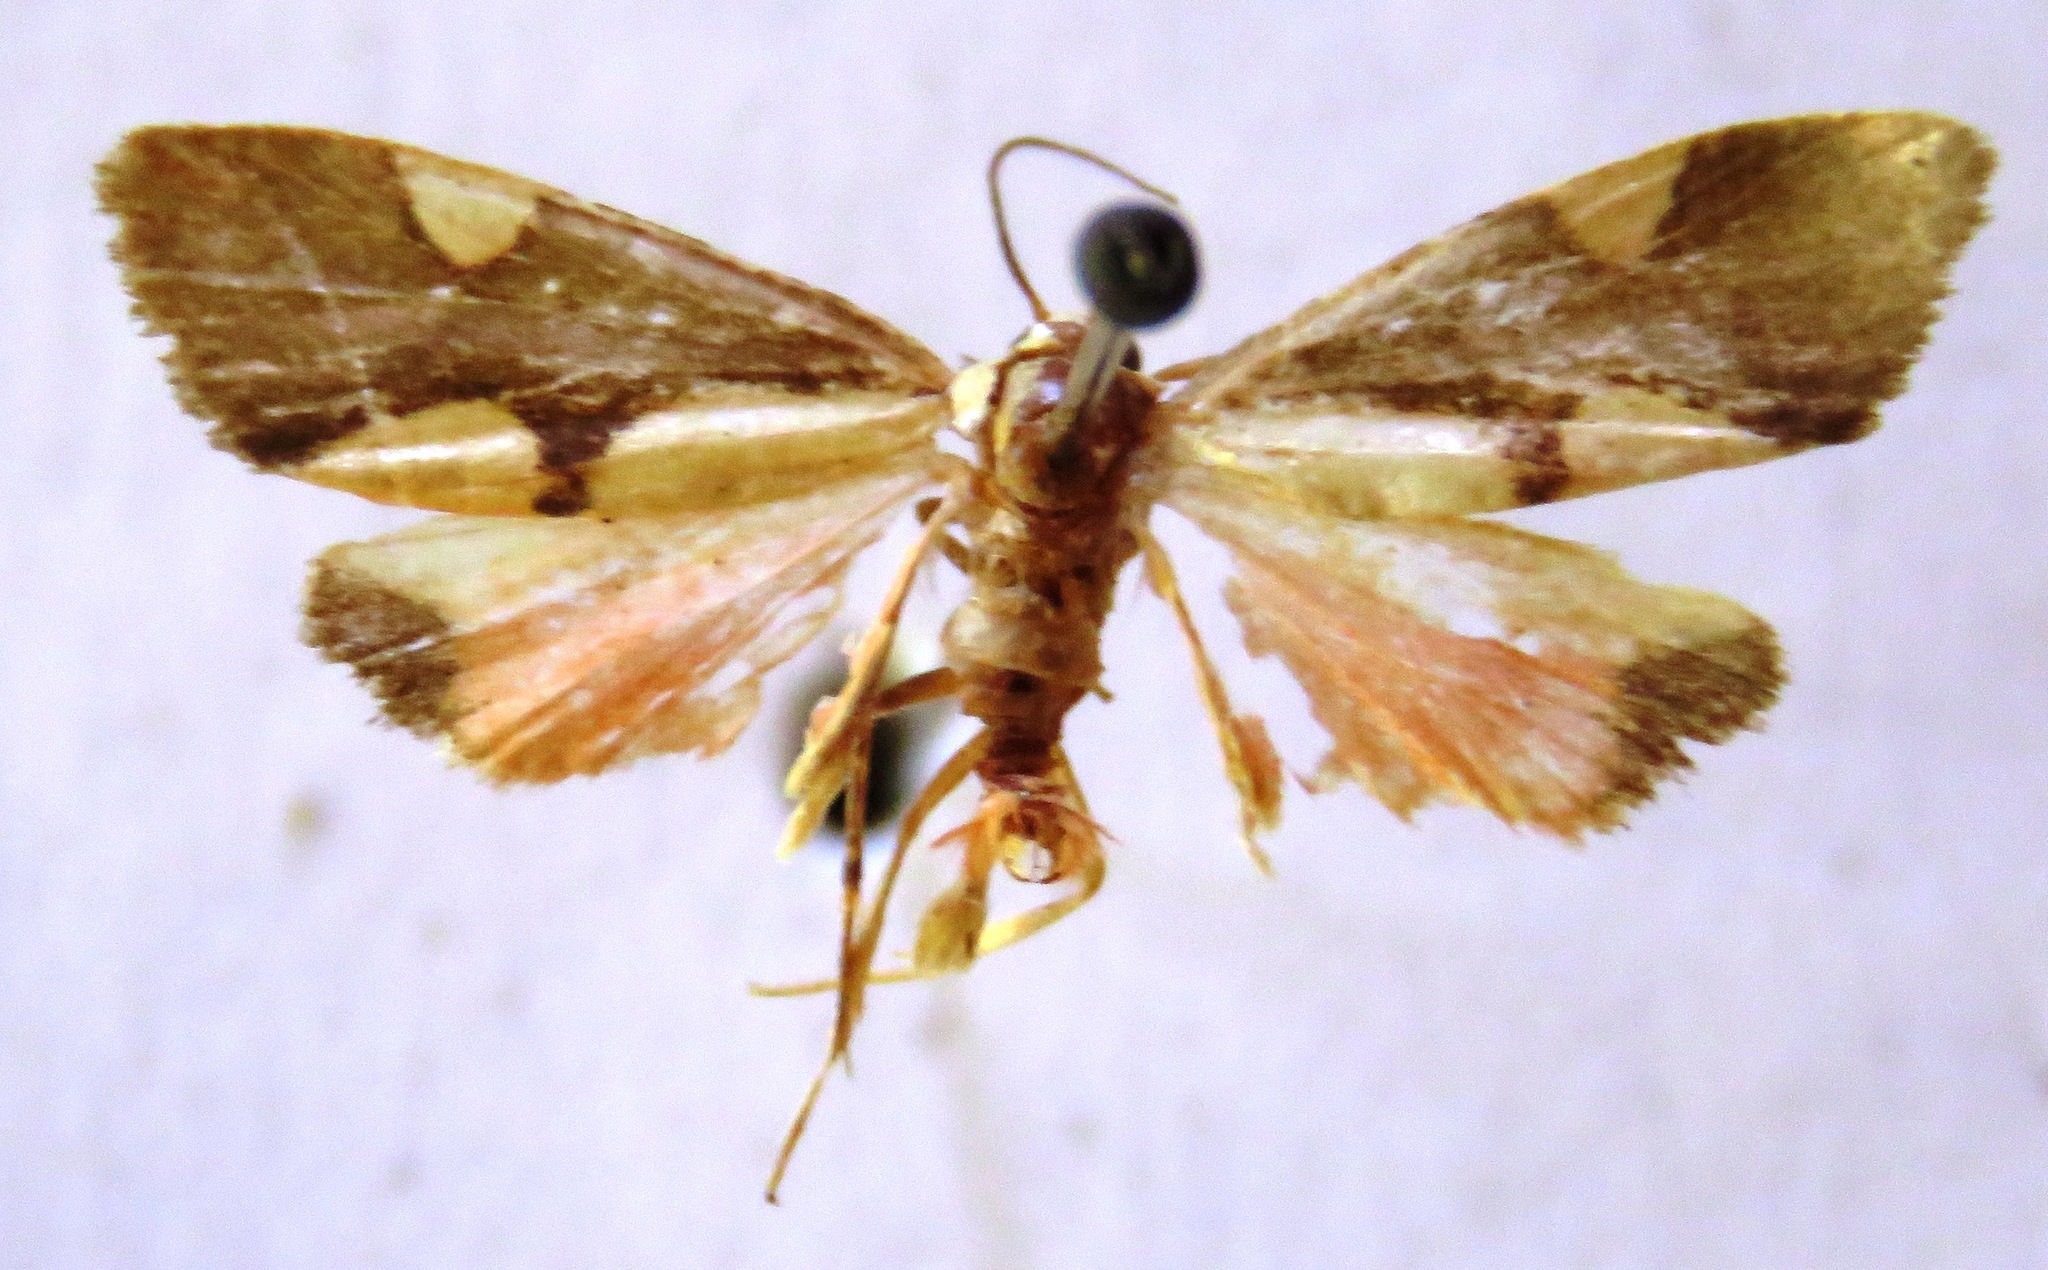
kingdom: Animalia
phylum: Arthropoda
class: Insecta
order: Lepidoptera
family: Erebidae
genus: Cisthene
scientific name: Cisthene polyzona
